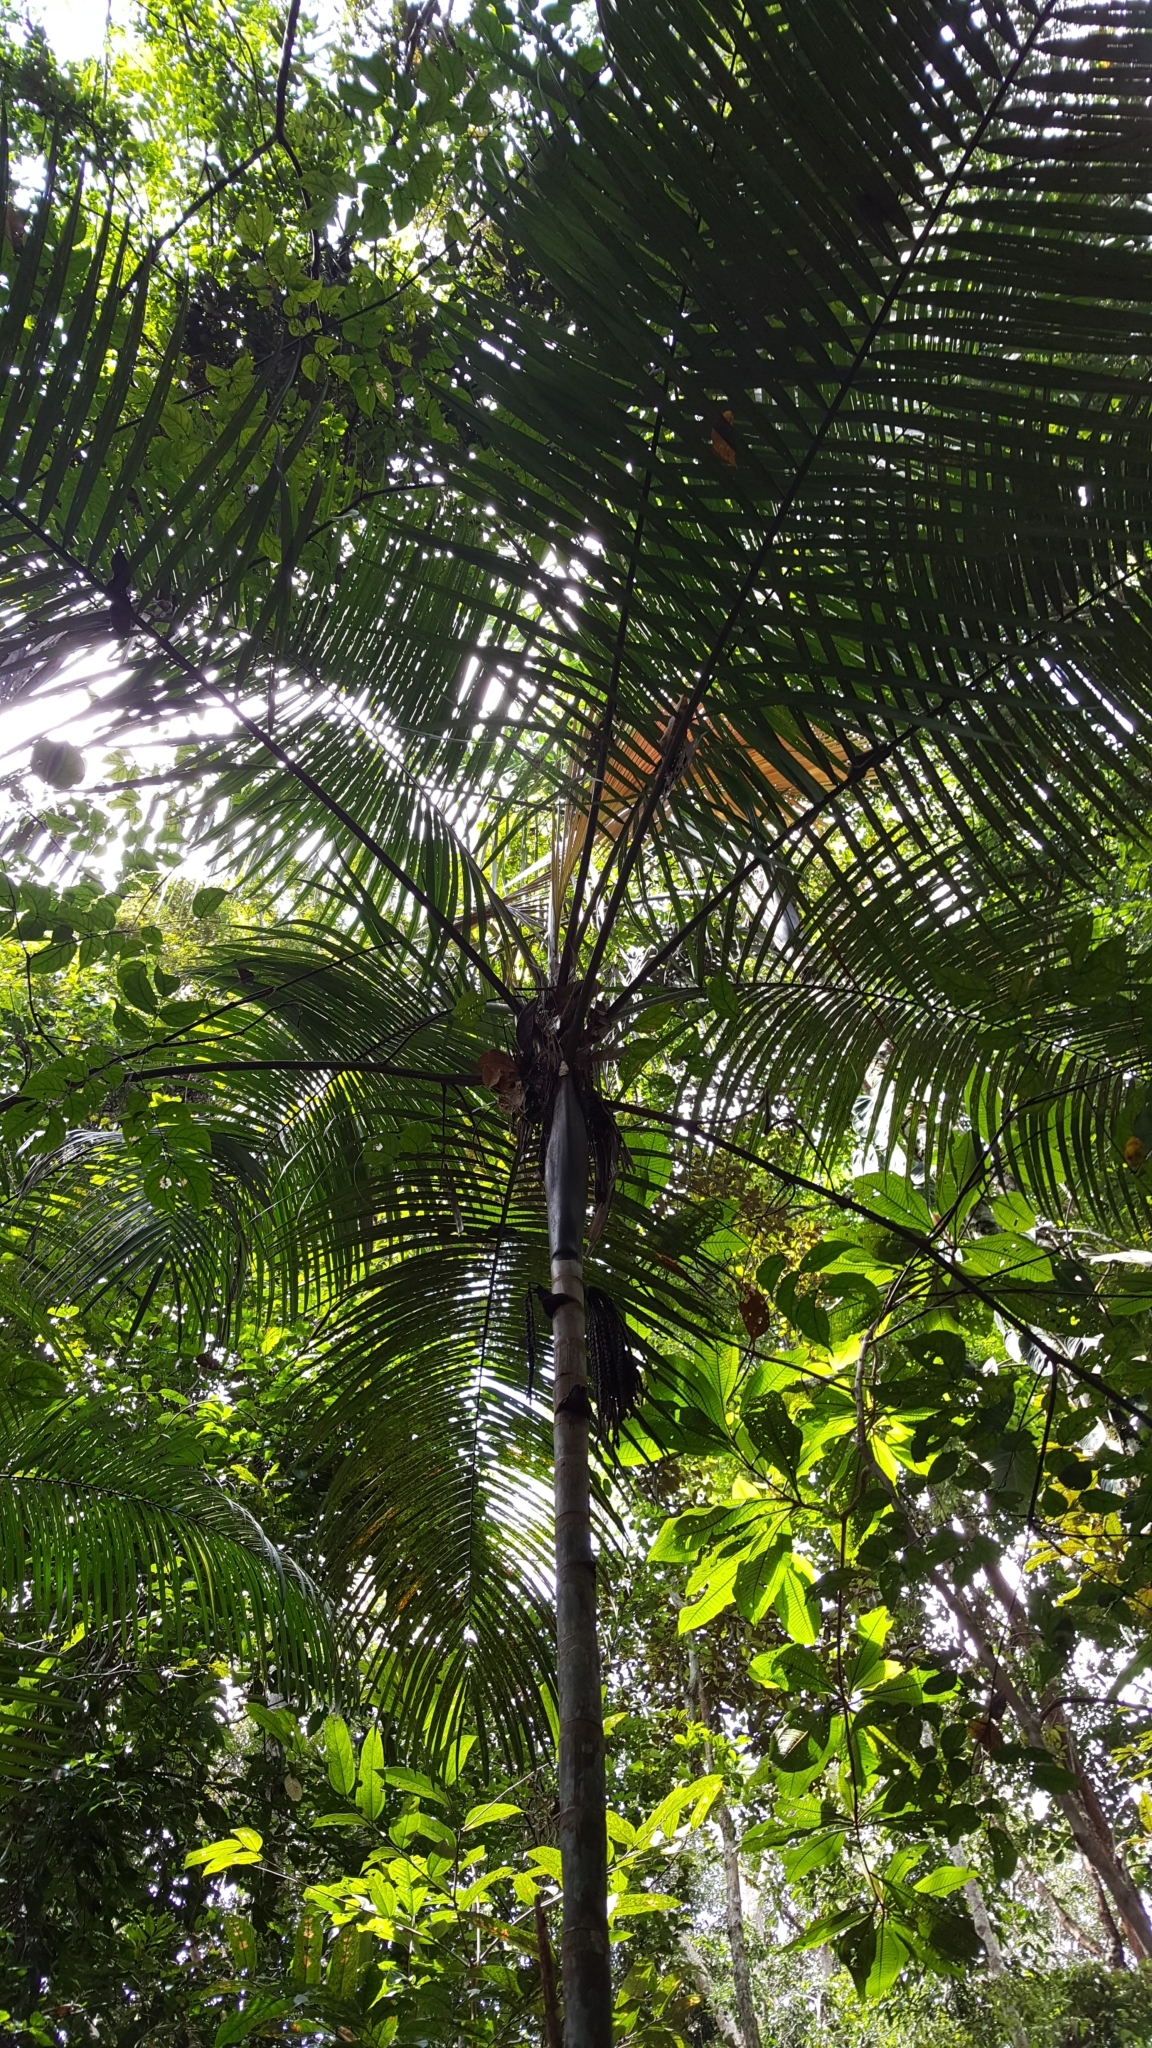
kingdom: Plantae
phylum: Tracheophyta
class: Liliopsida
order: Arecales
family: Arecaceae
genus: Oenocarpus
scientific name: Oenocarpus minor
